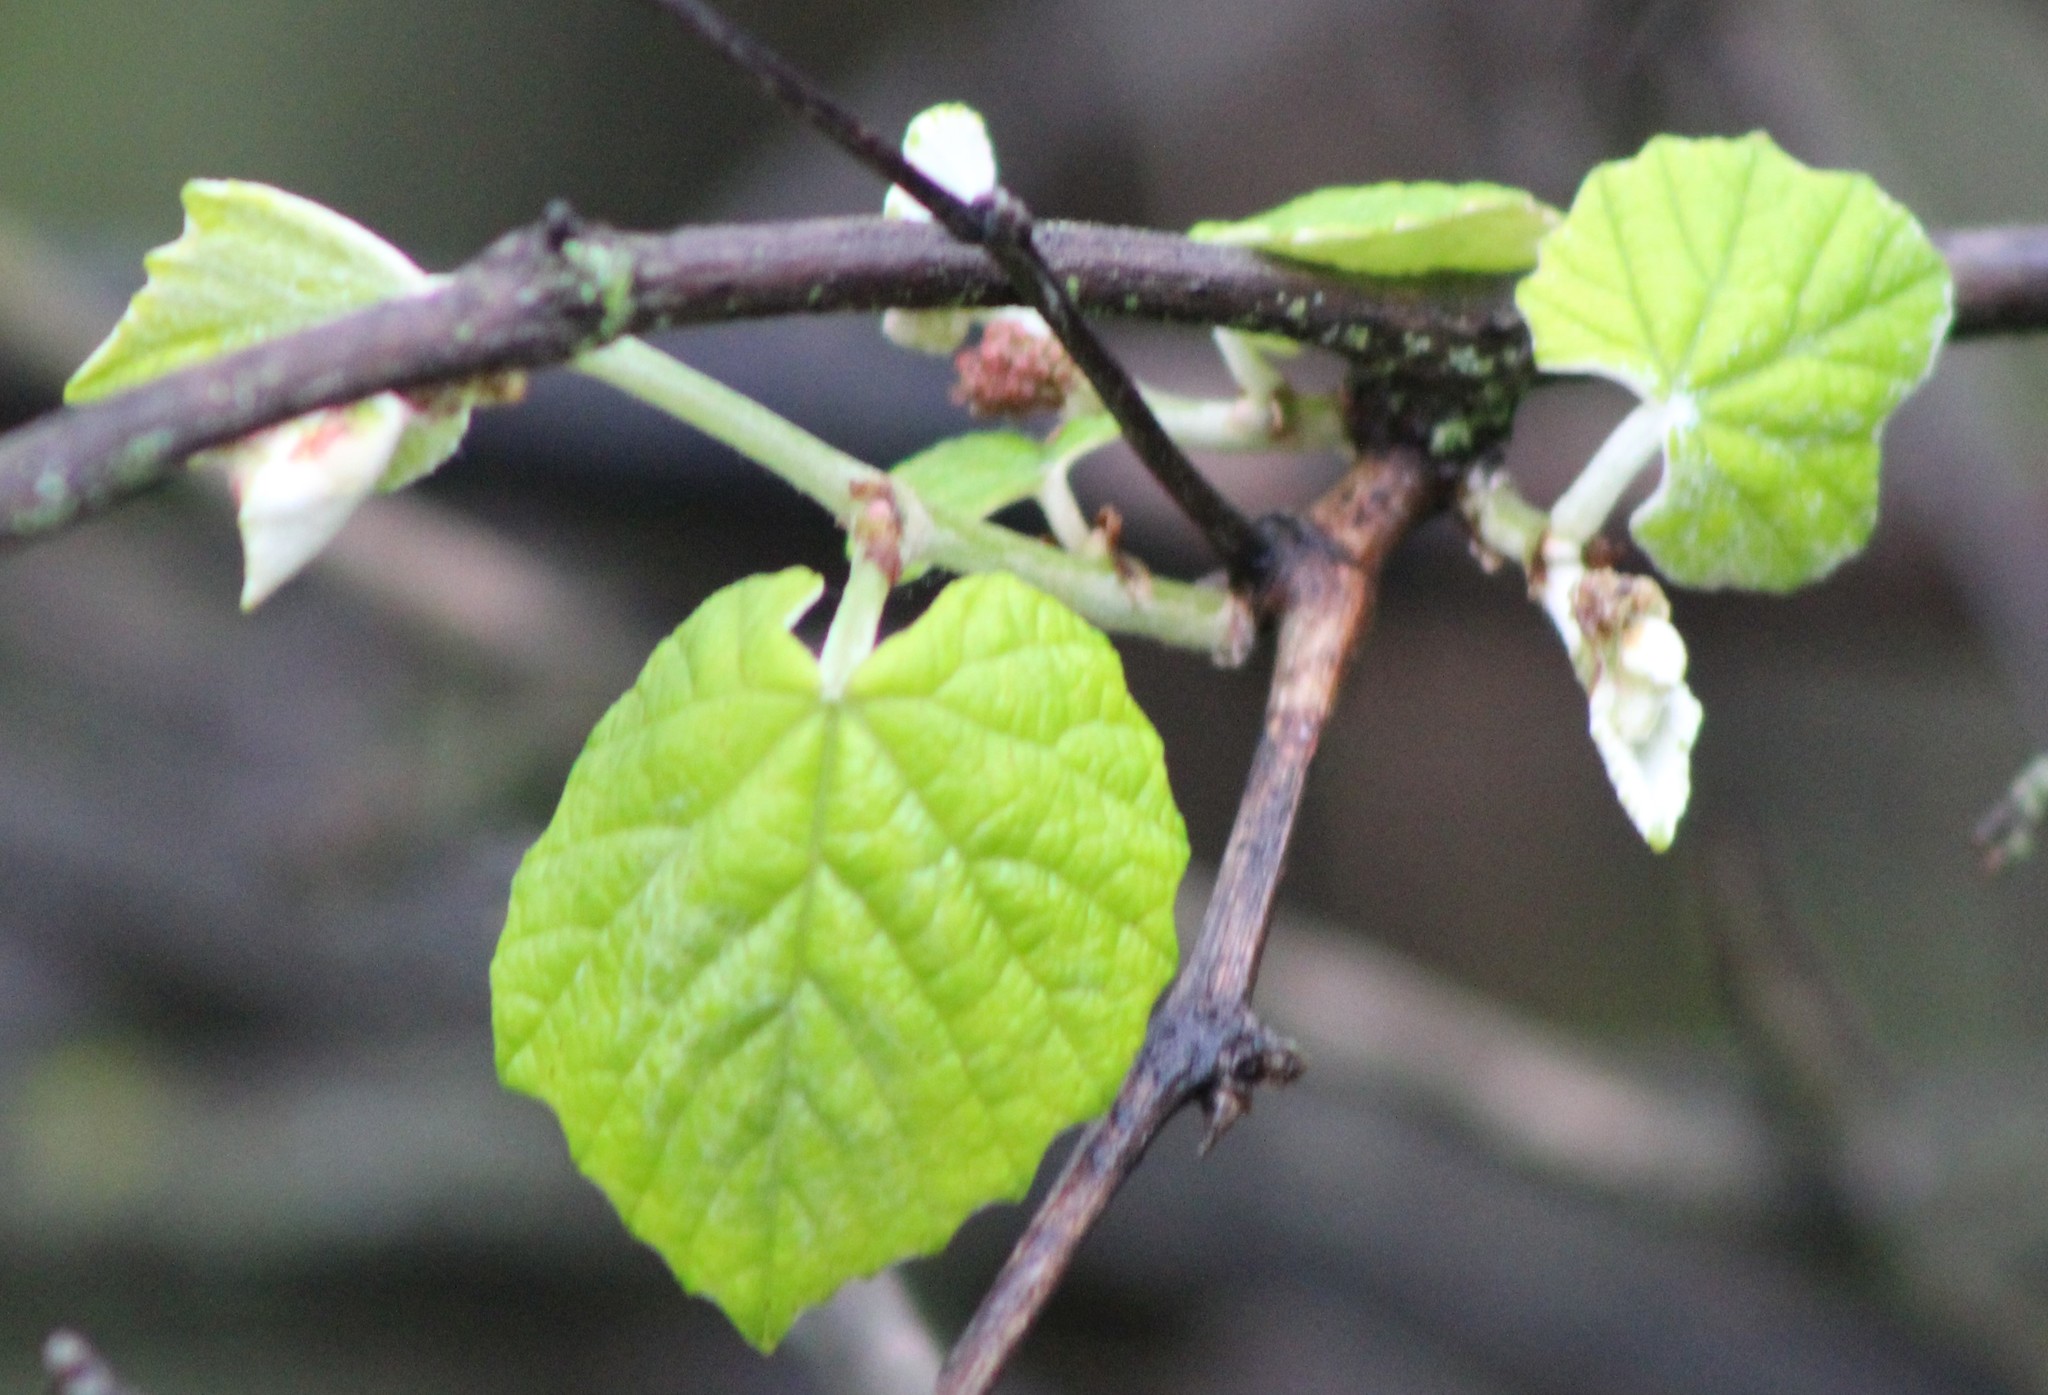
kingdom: Plantae
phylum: Tracheophyta
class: Magnoliopsida
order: Vitales
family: Vitaceae
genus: Vitis
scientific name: Vitis mustangensis
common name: Mustang grape
